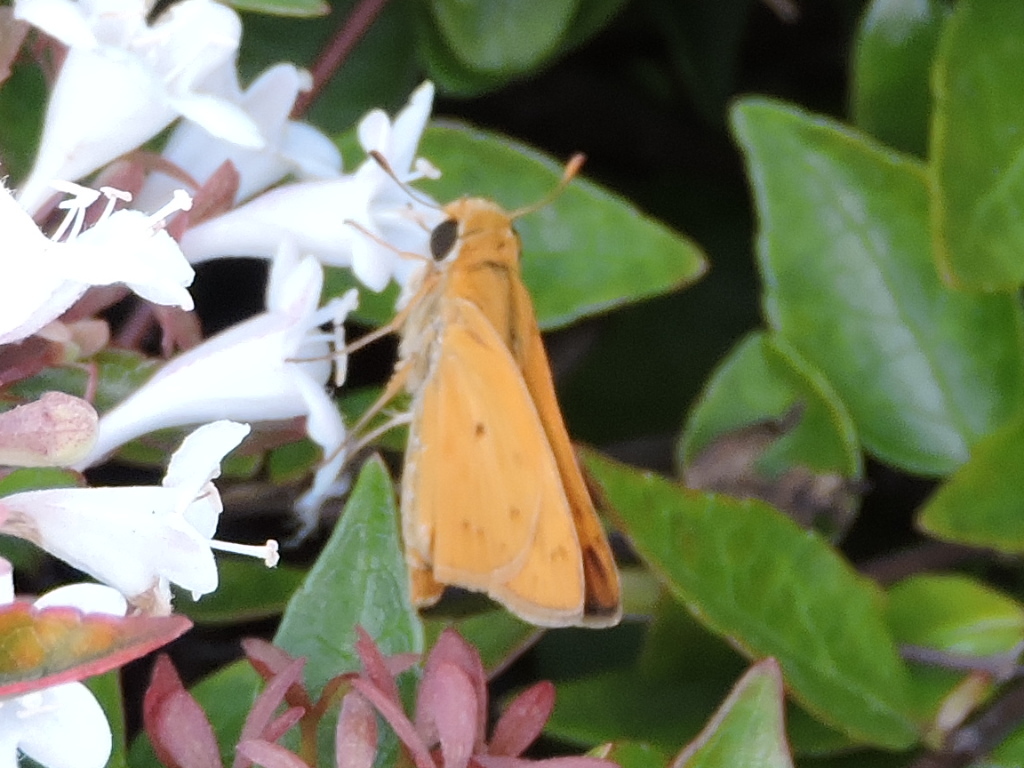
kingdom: Animalia
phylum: Arthropoda
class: Insecta
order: Lepidoptera
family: Hesperiidae
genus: Hylephila
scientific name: Hylephila phyleus
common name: Fiery skipper
